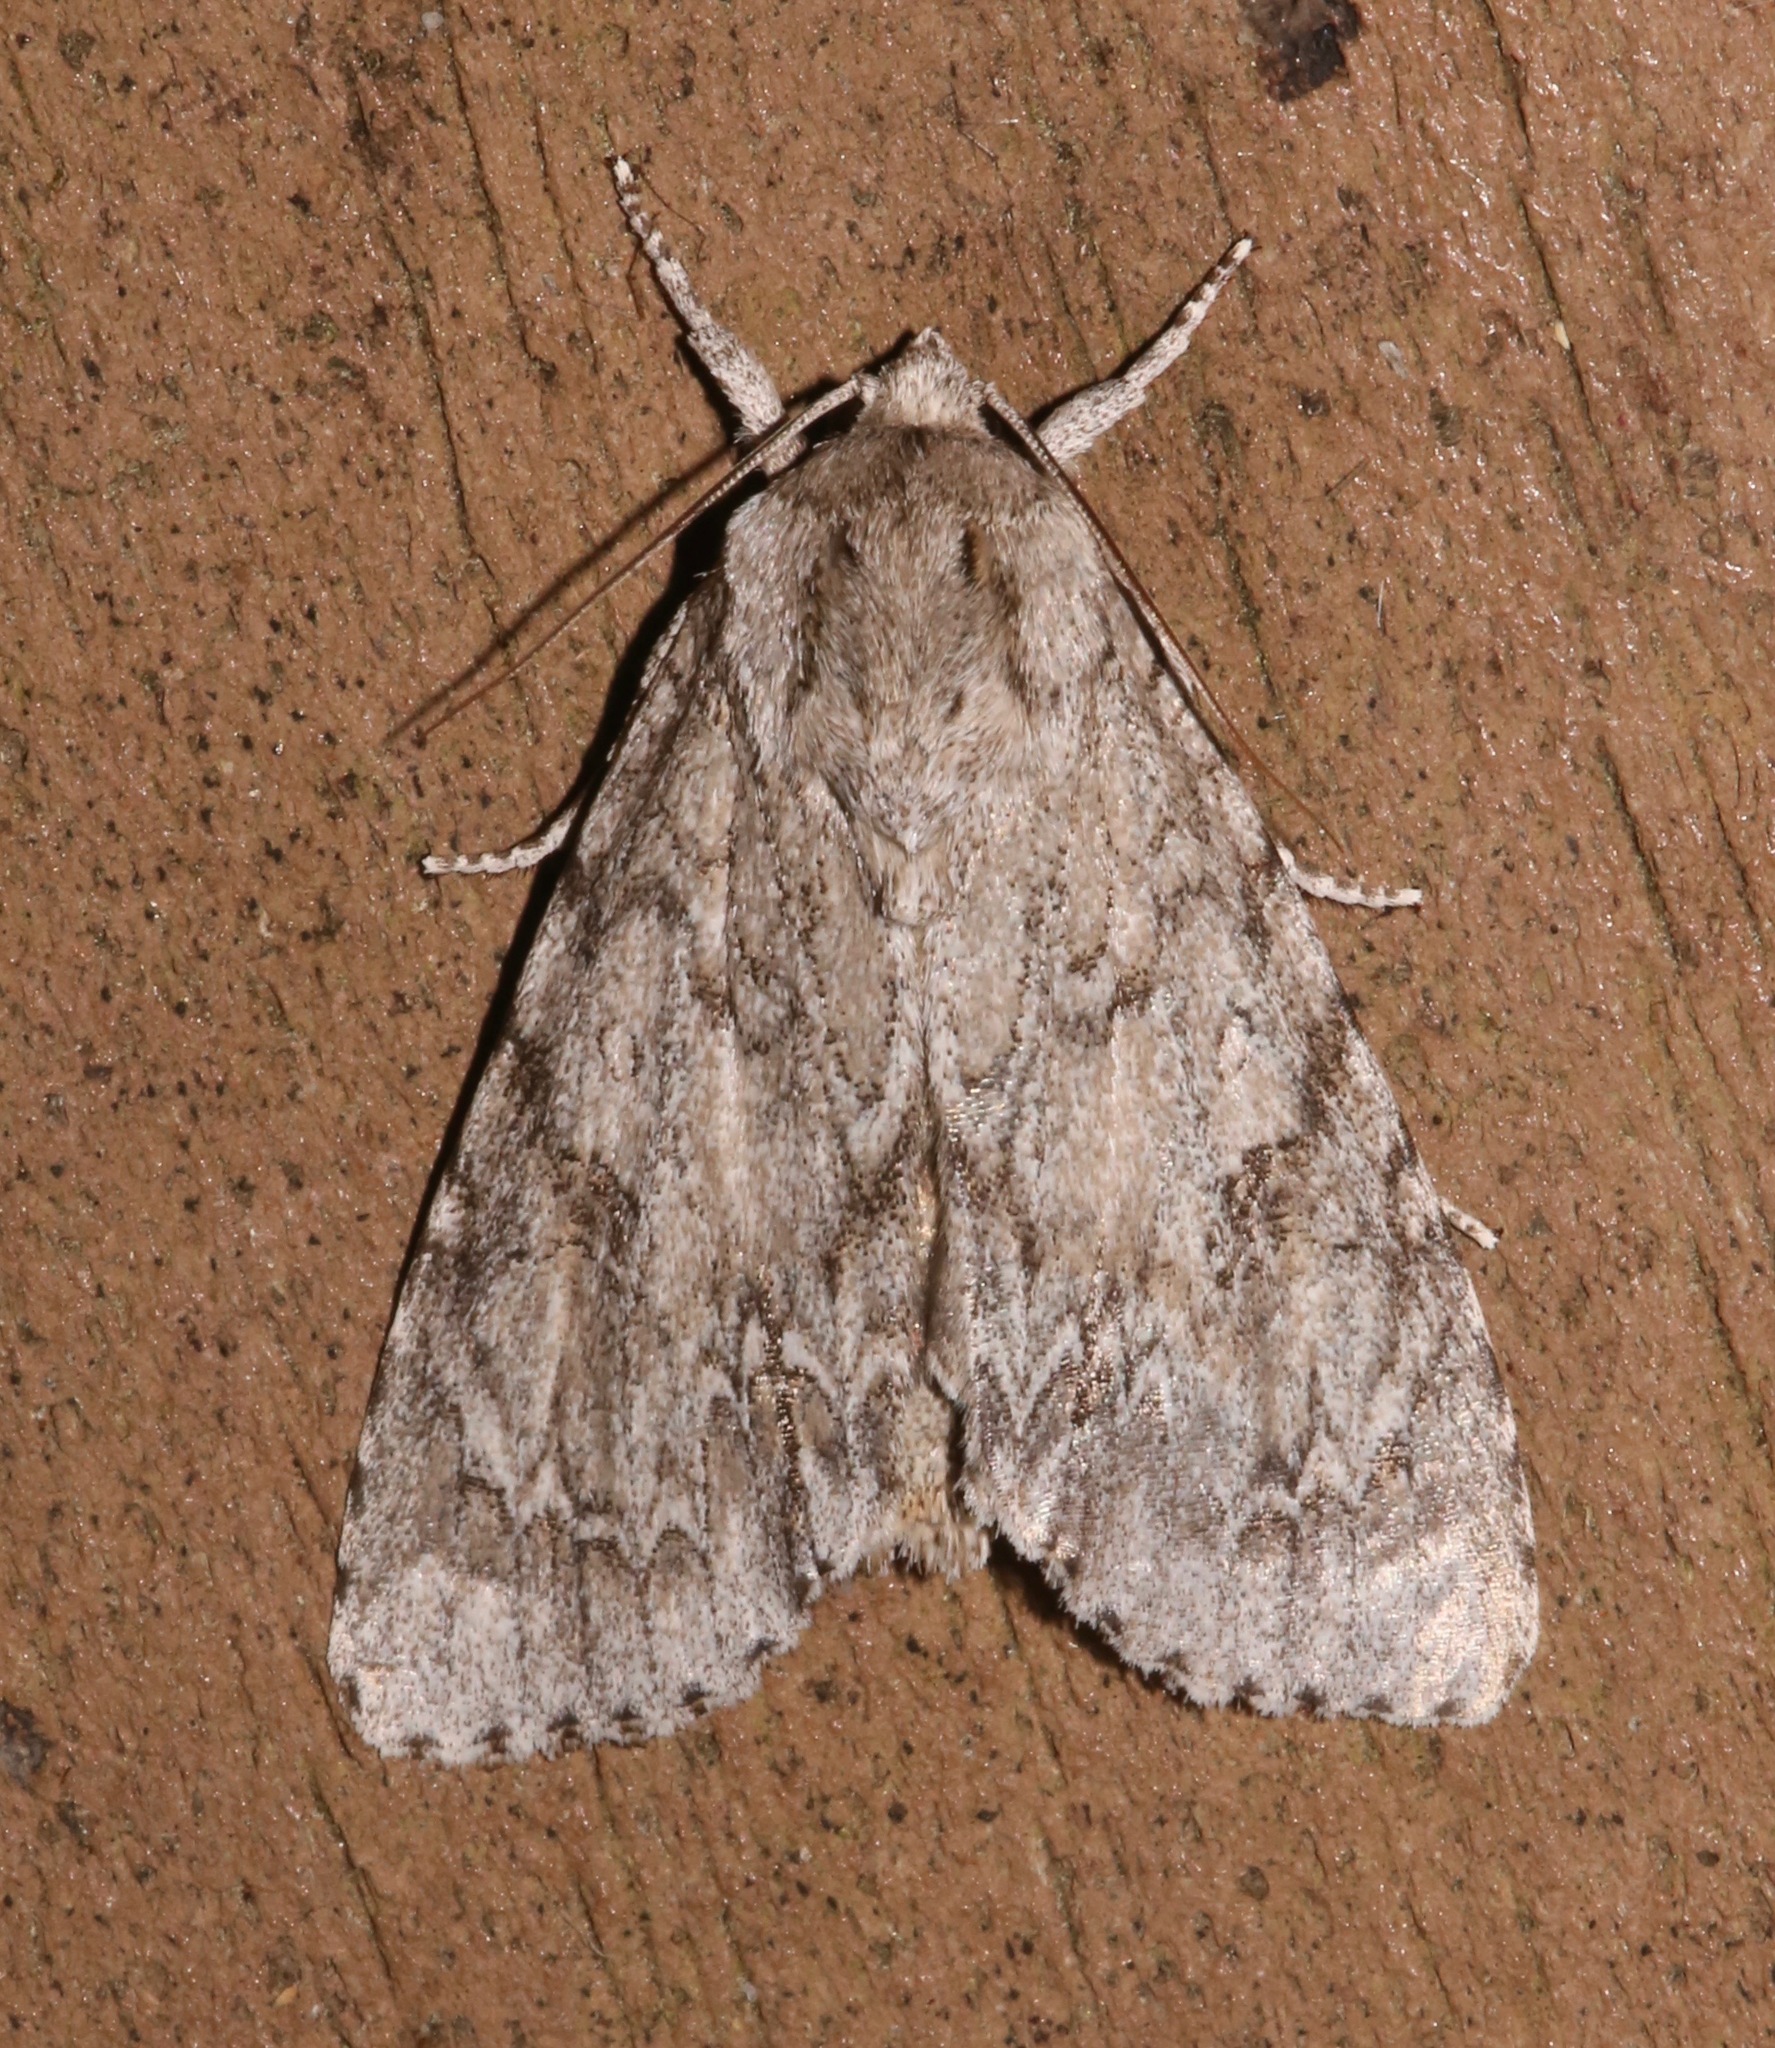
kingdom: Animalia
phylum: Arthropoda
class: Insecta
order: Lepidoptera
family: Noctuidae
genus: Acronicta
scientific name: Acronicta americana
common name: American dagger
